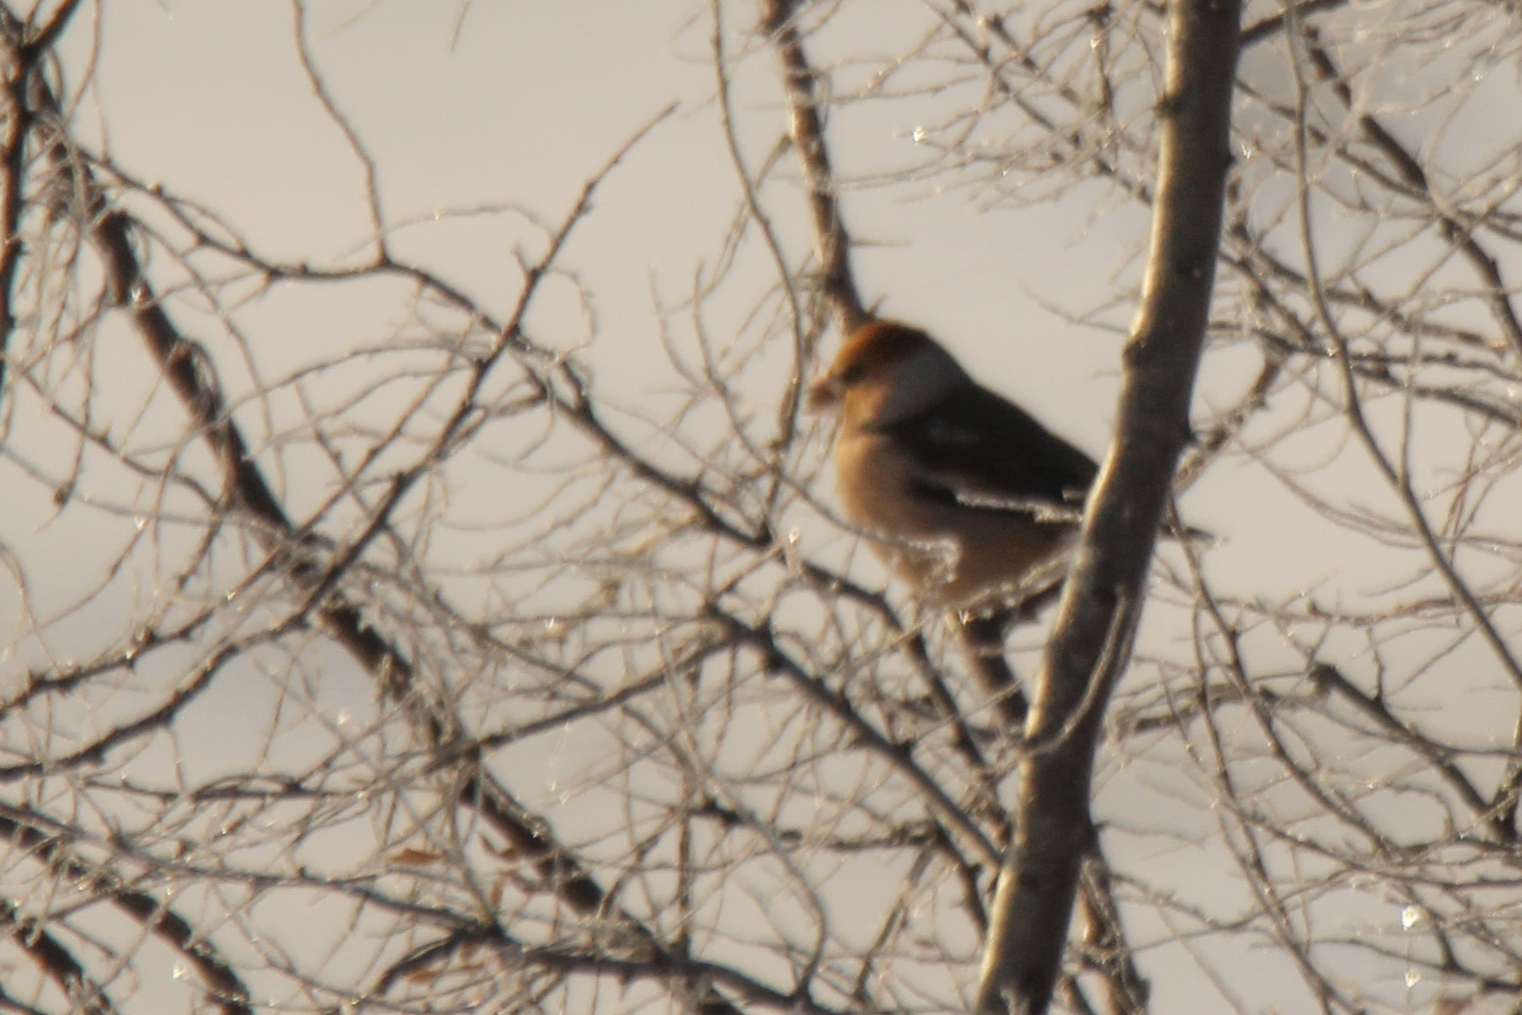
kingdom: Animalia
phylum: Chordata
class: Aves
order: Passeriformes
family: Fringillidae
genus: Coccothraustes
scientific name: Coccothraustes coccothraustes
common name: Hawfinch
